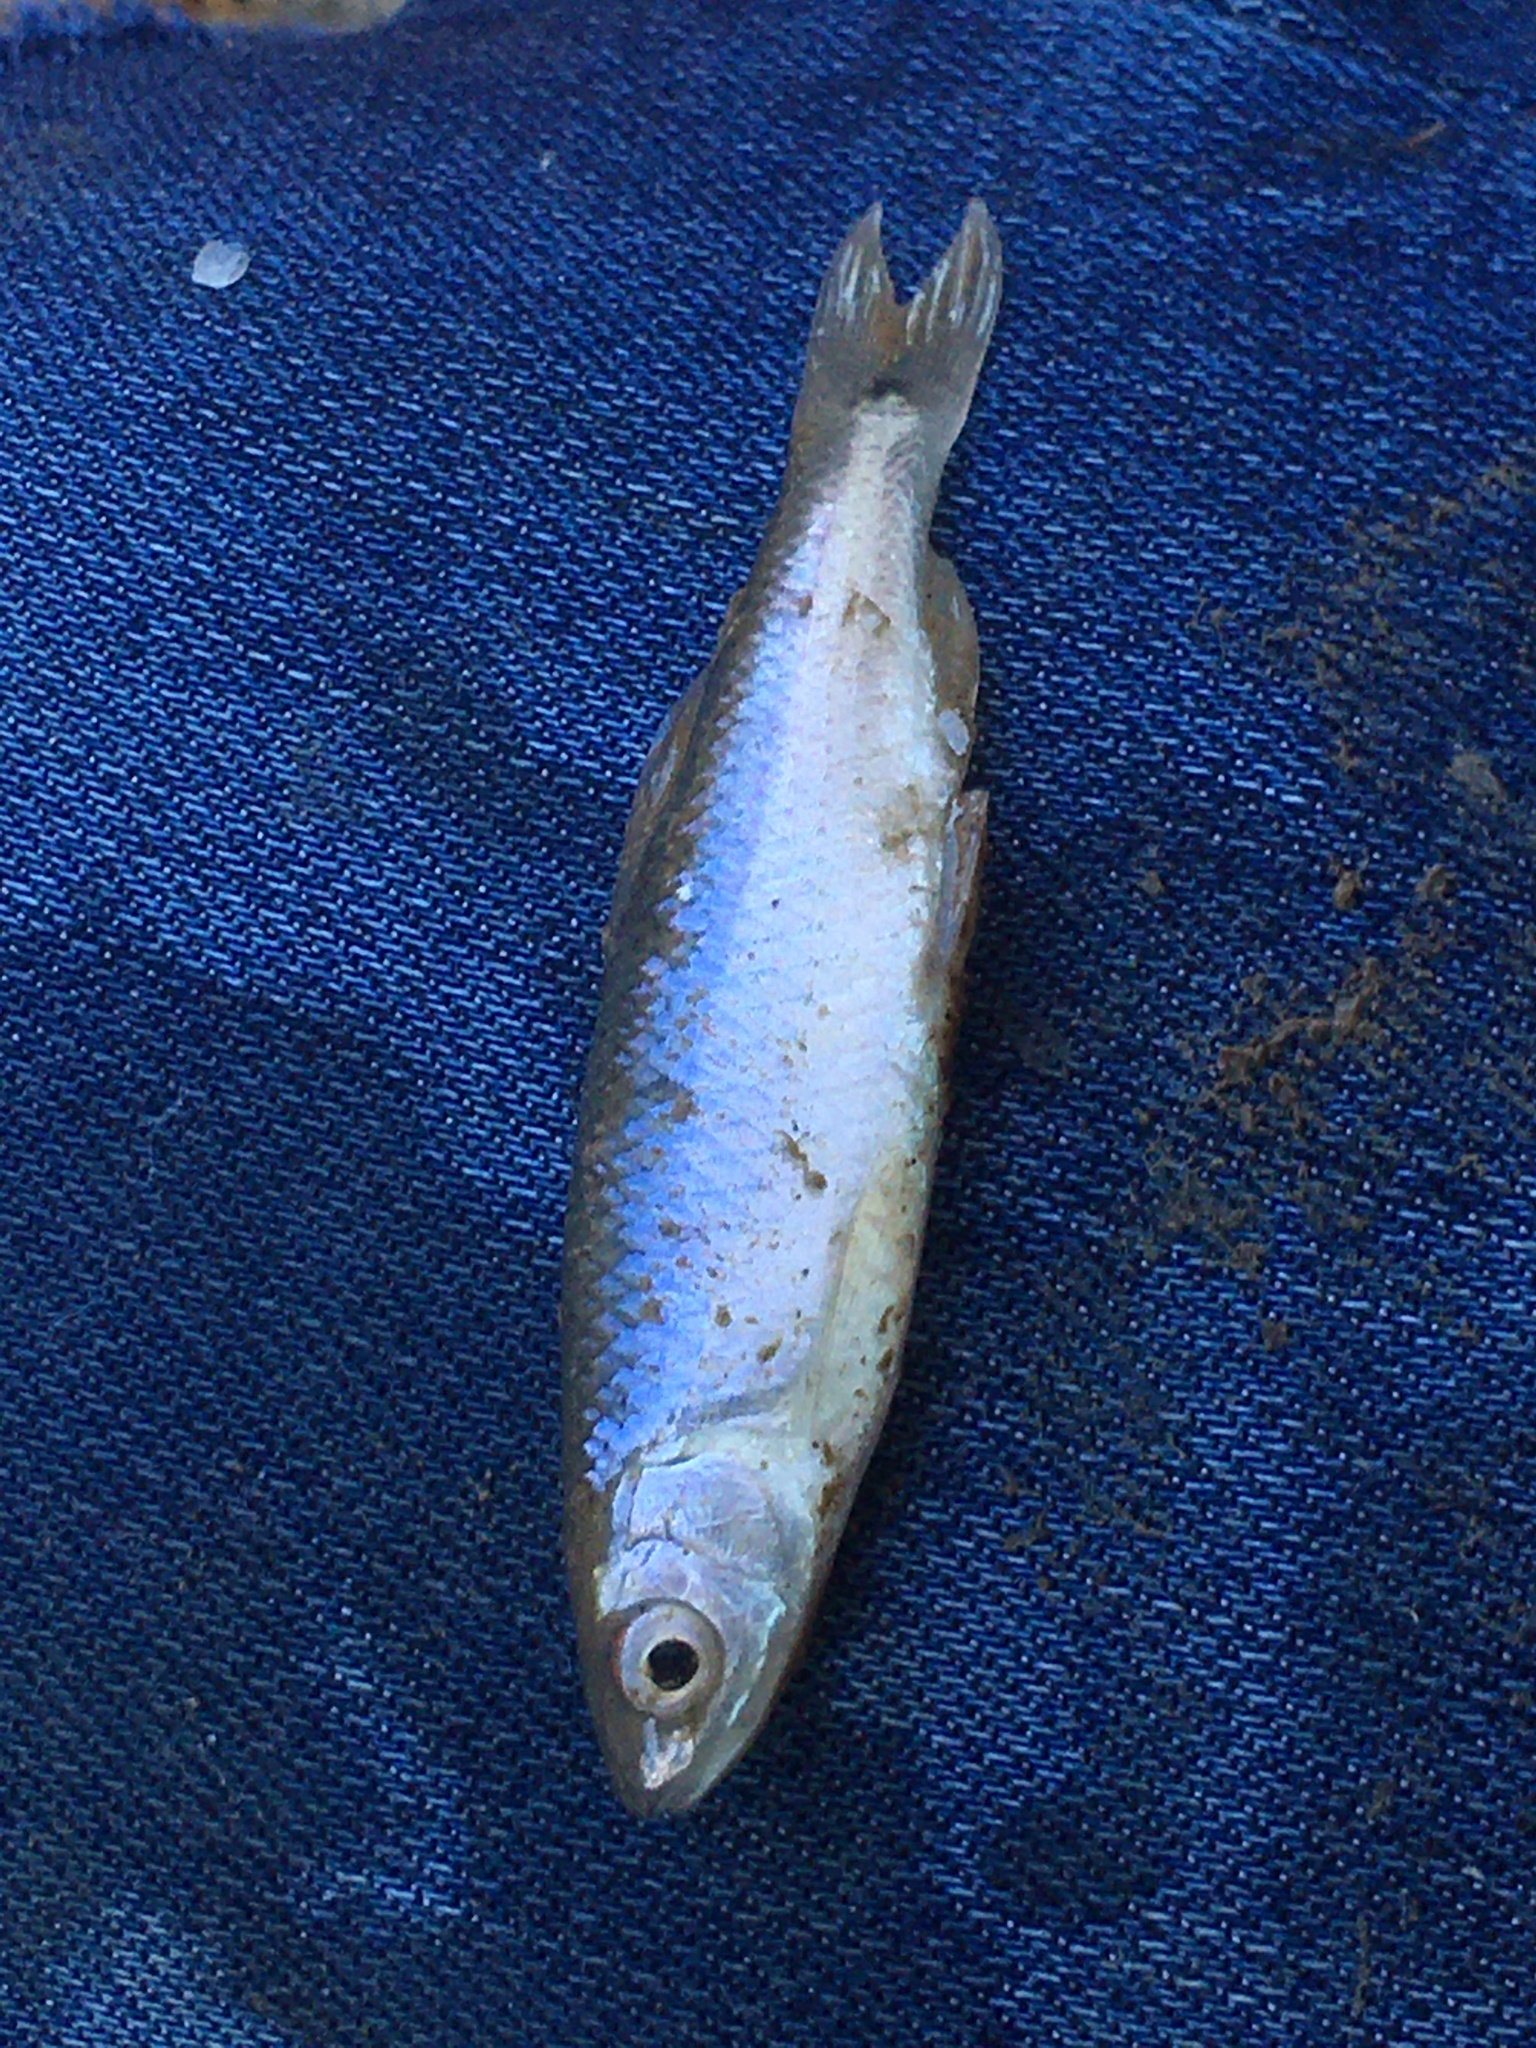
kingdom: Animalia
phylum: Chordata
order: Cypriniformes
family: Cyprinidae
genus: Cyprinella
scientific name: Cyprinella venusta
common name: Blacktail shiner
